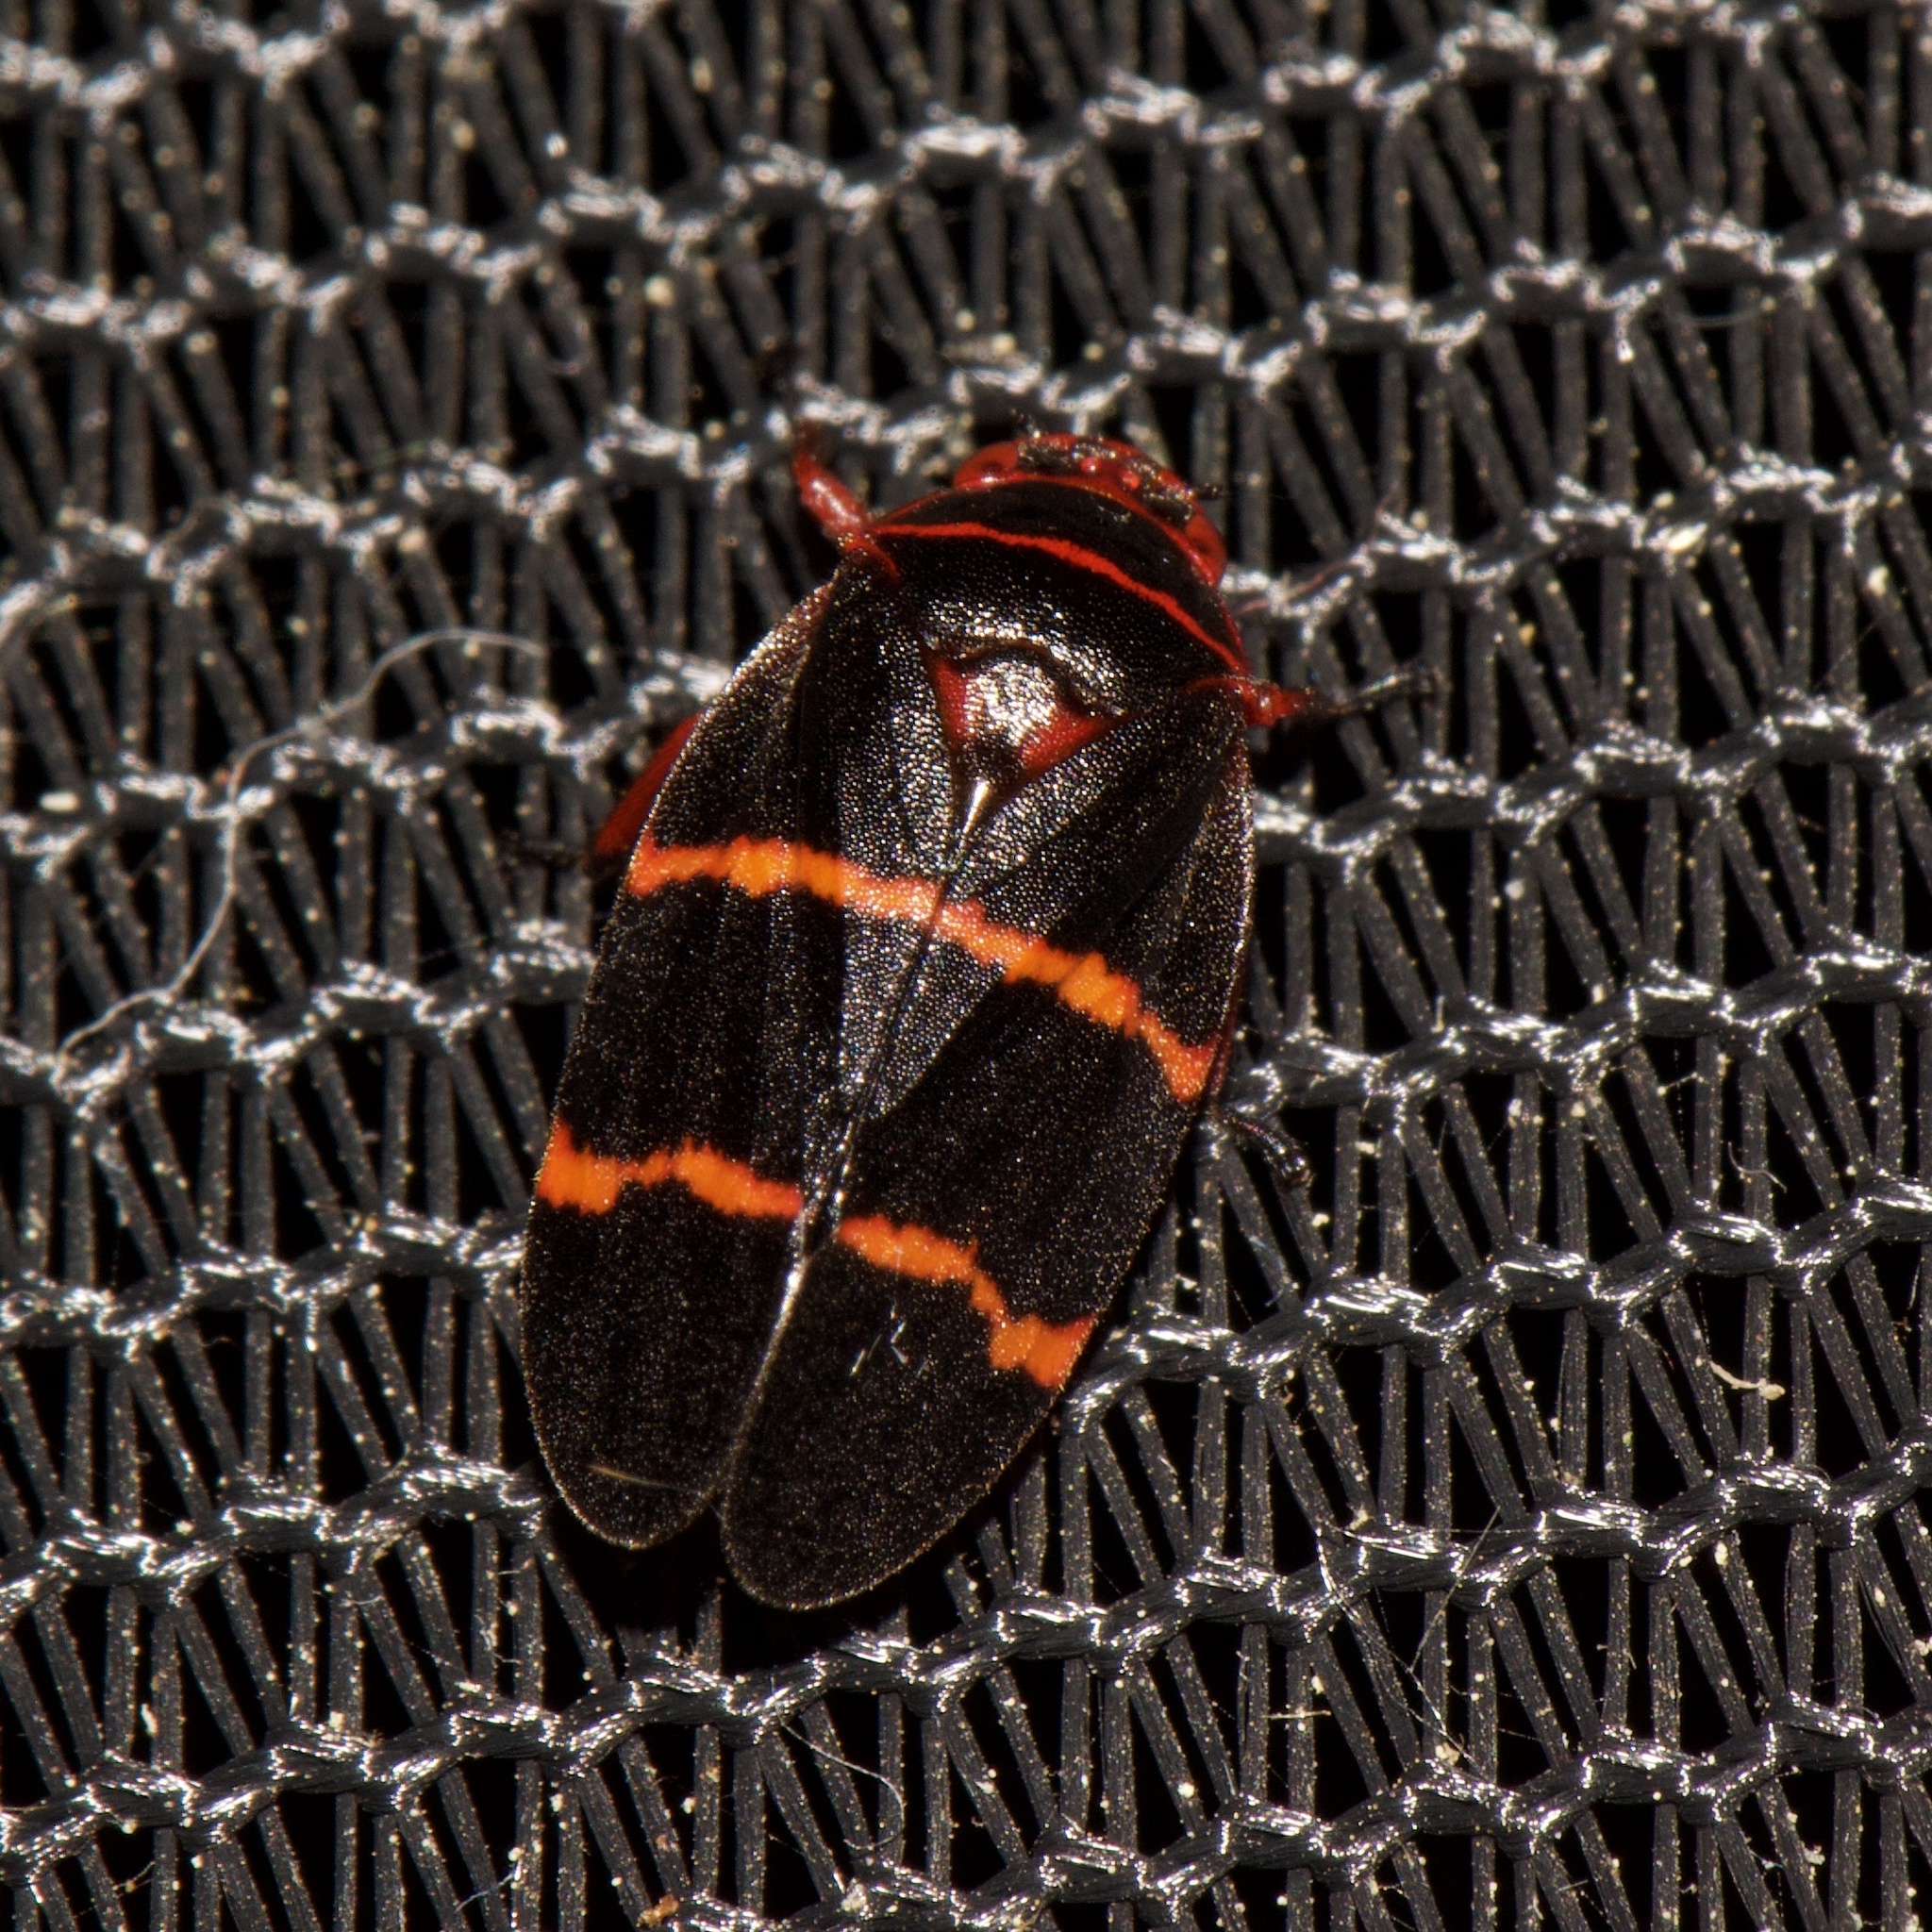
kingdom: Animalia
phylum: Arthropoda
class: Insecta
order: Hemiptera
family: Cercopidae
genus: Prosapia
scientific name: Prosapia bicincta
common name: Twolined spittlebug
